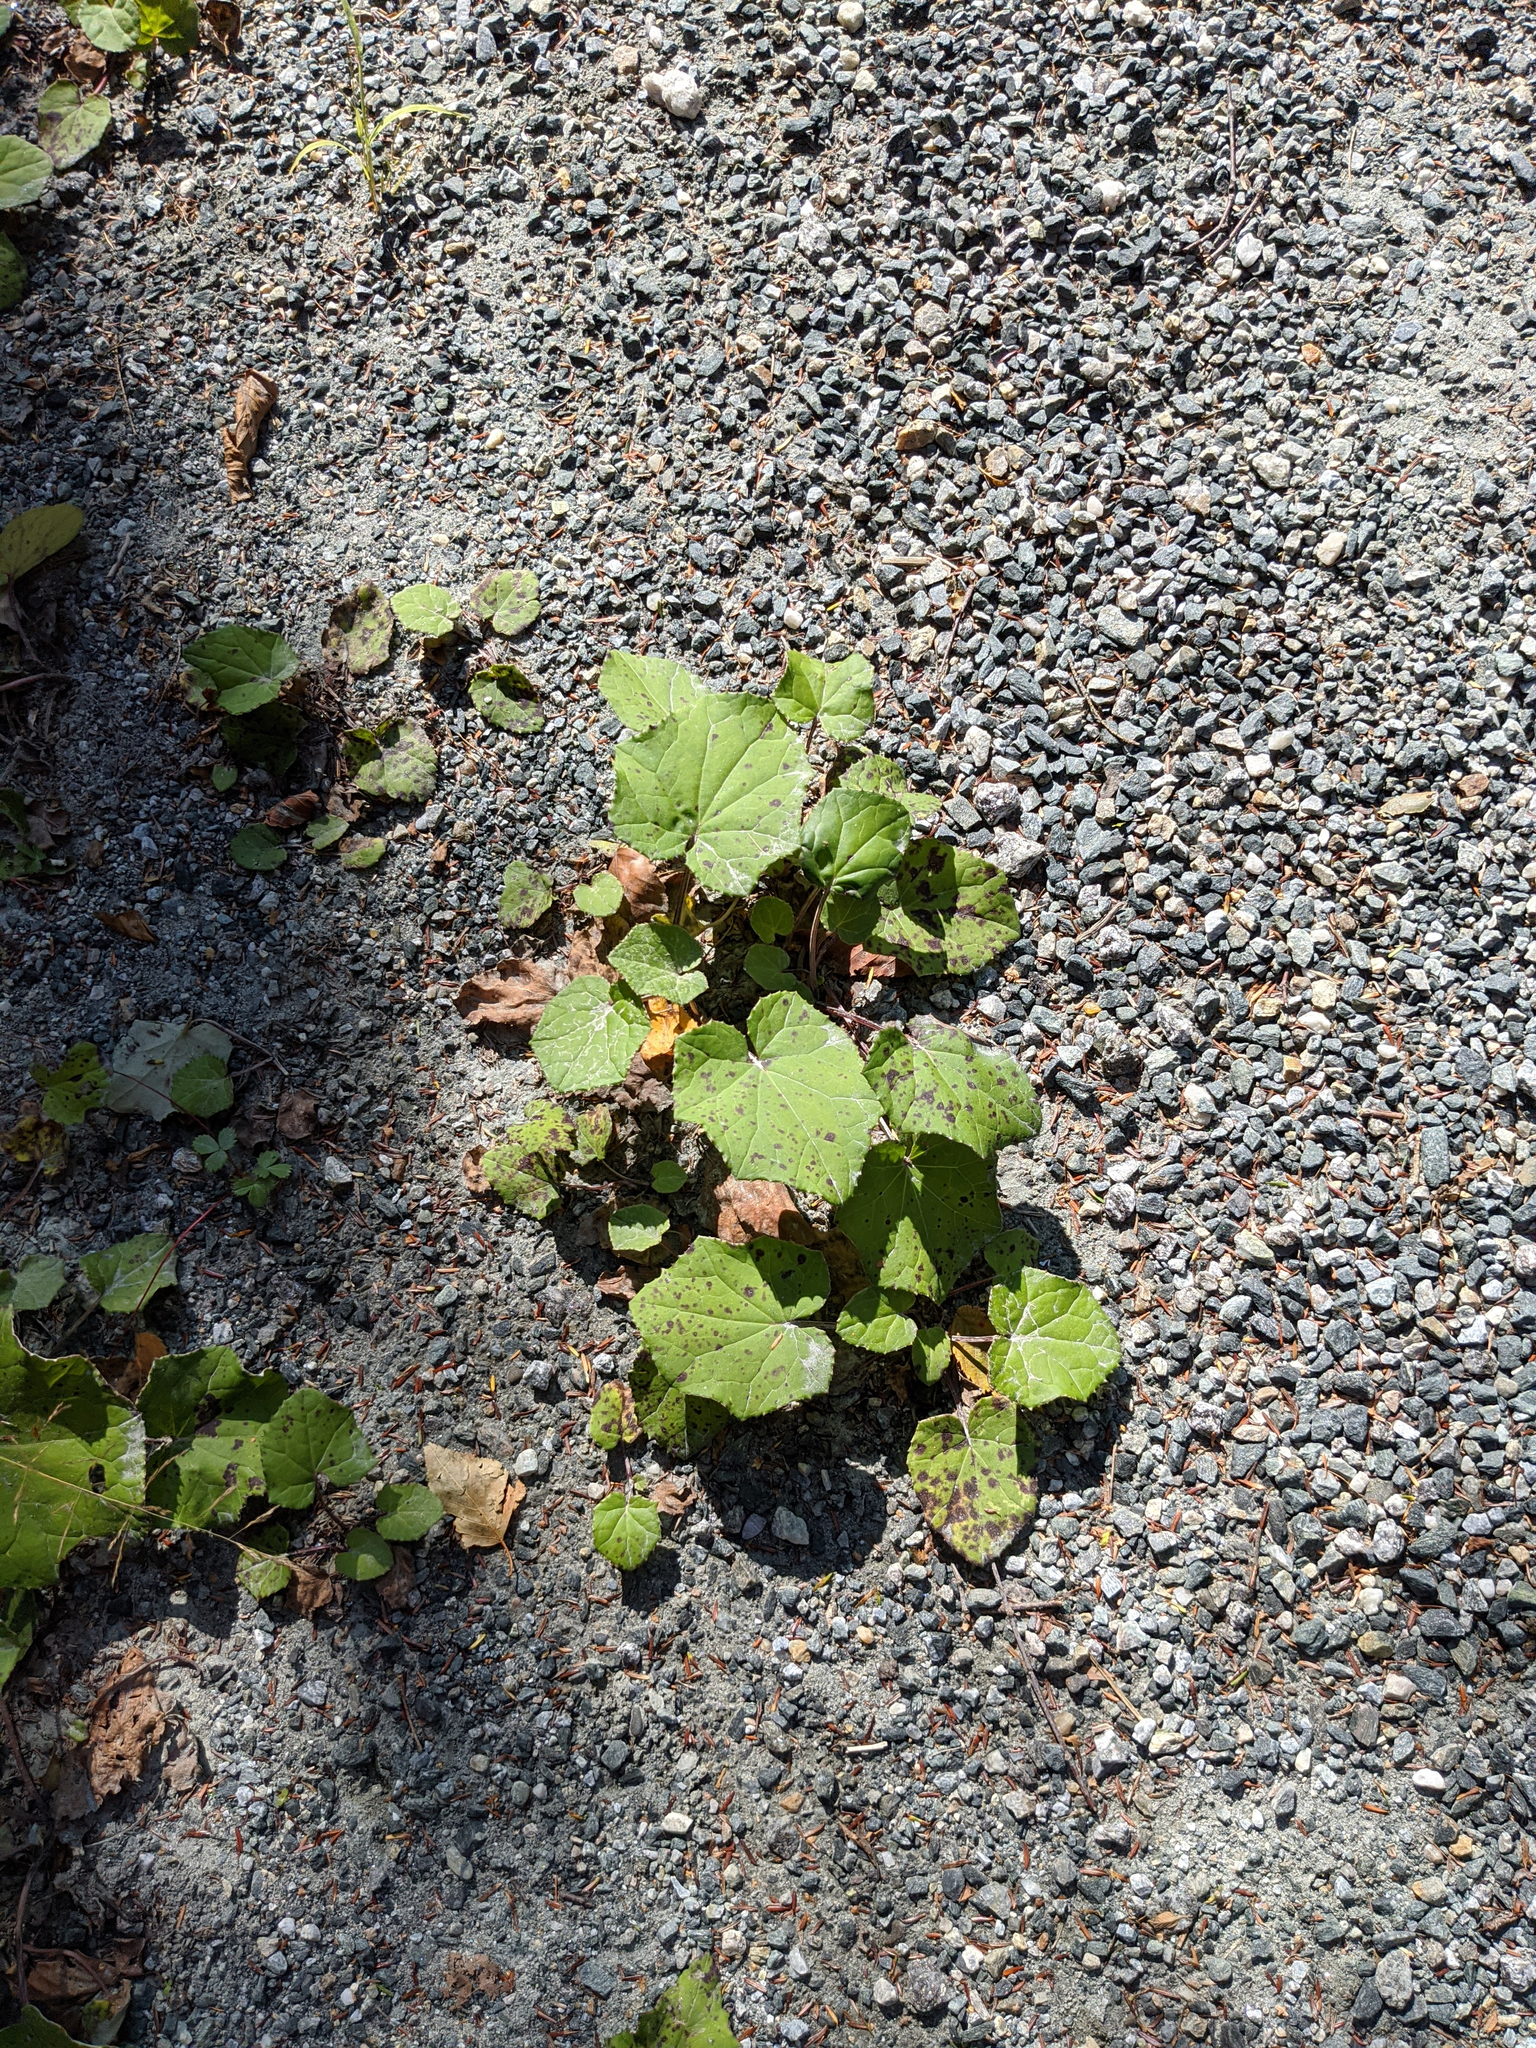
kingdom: Plantae
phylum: Tracheophyta
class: Magnoliopsida
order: Asterales
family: Asteraceae
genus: Tussilago
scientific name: Tussilago farfara
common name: Coltsfoot
